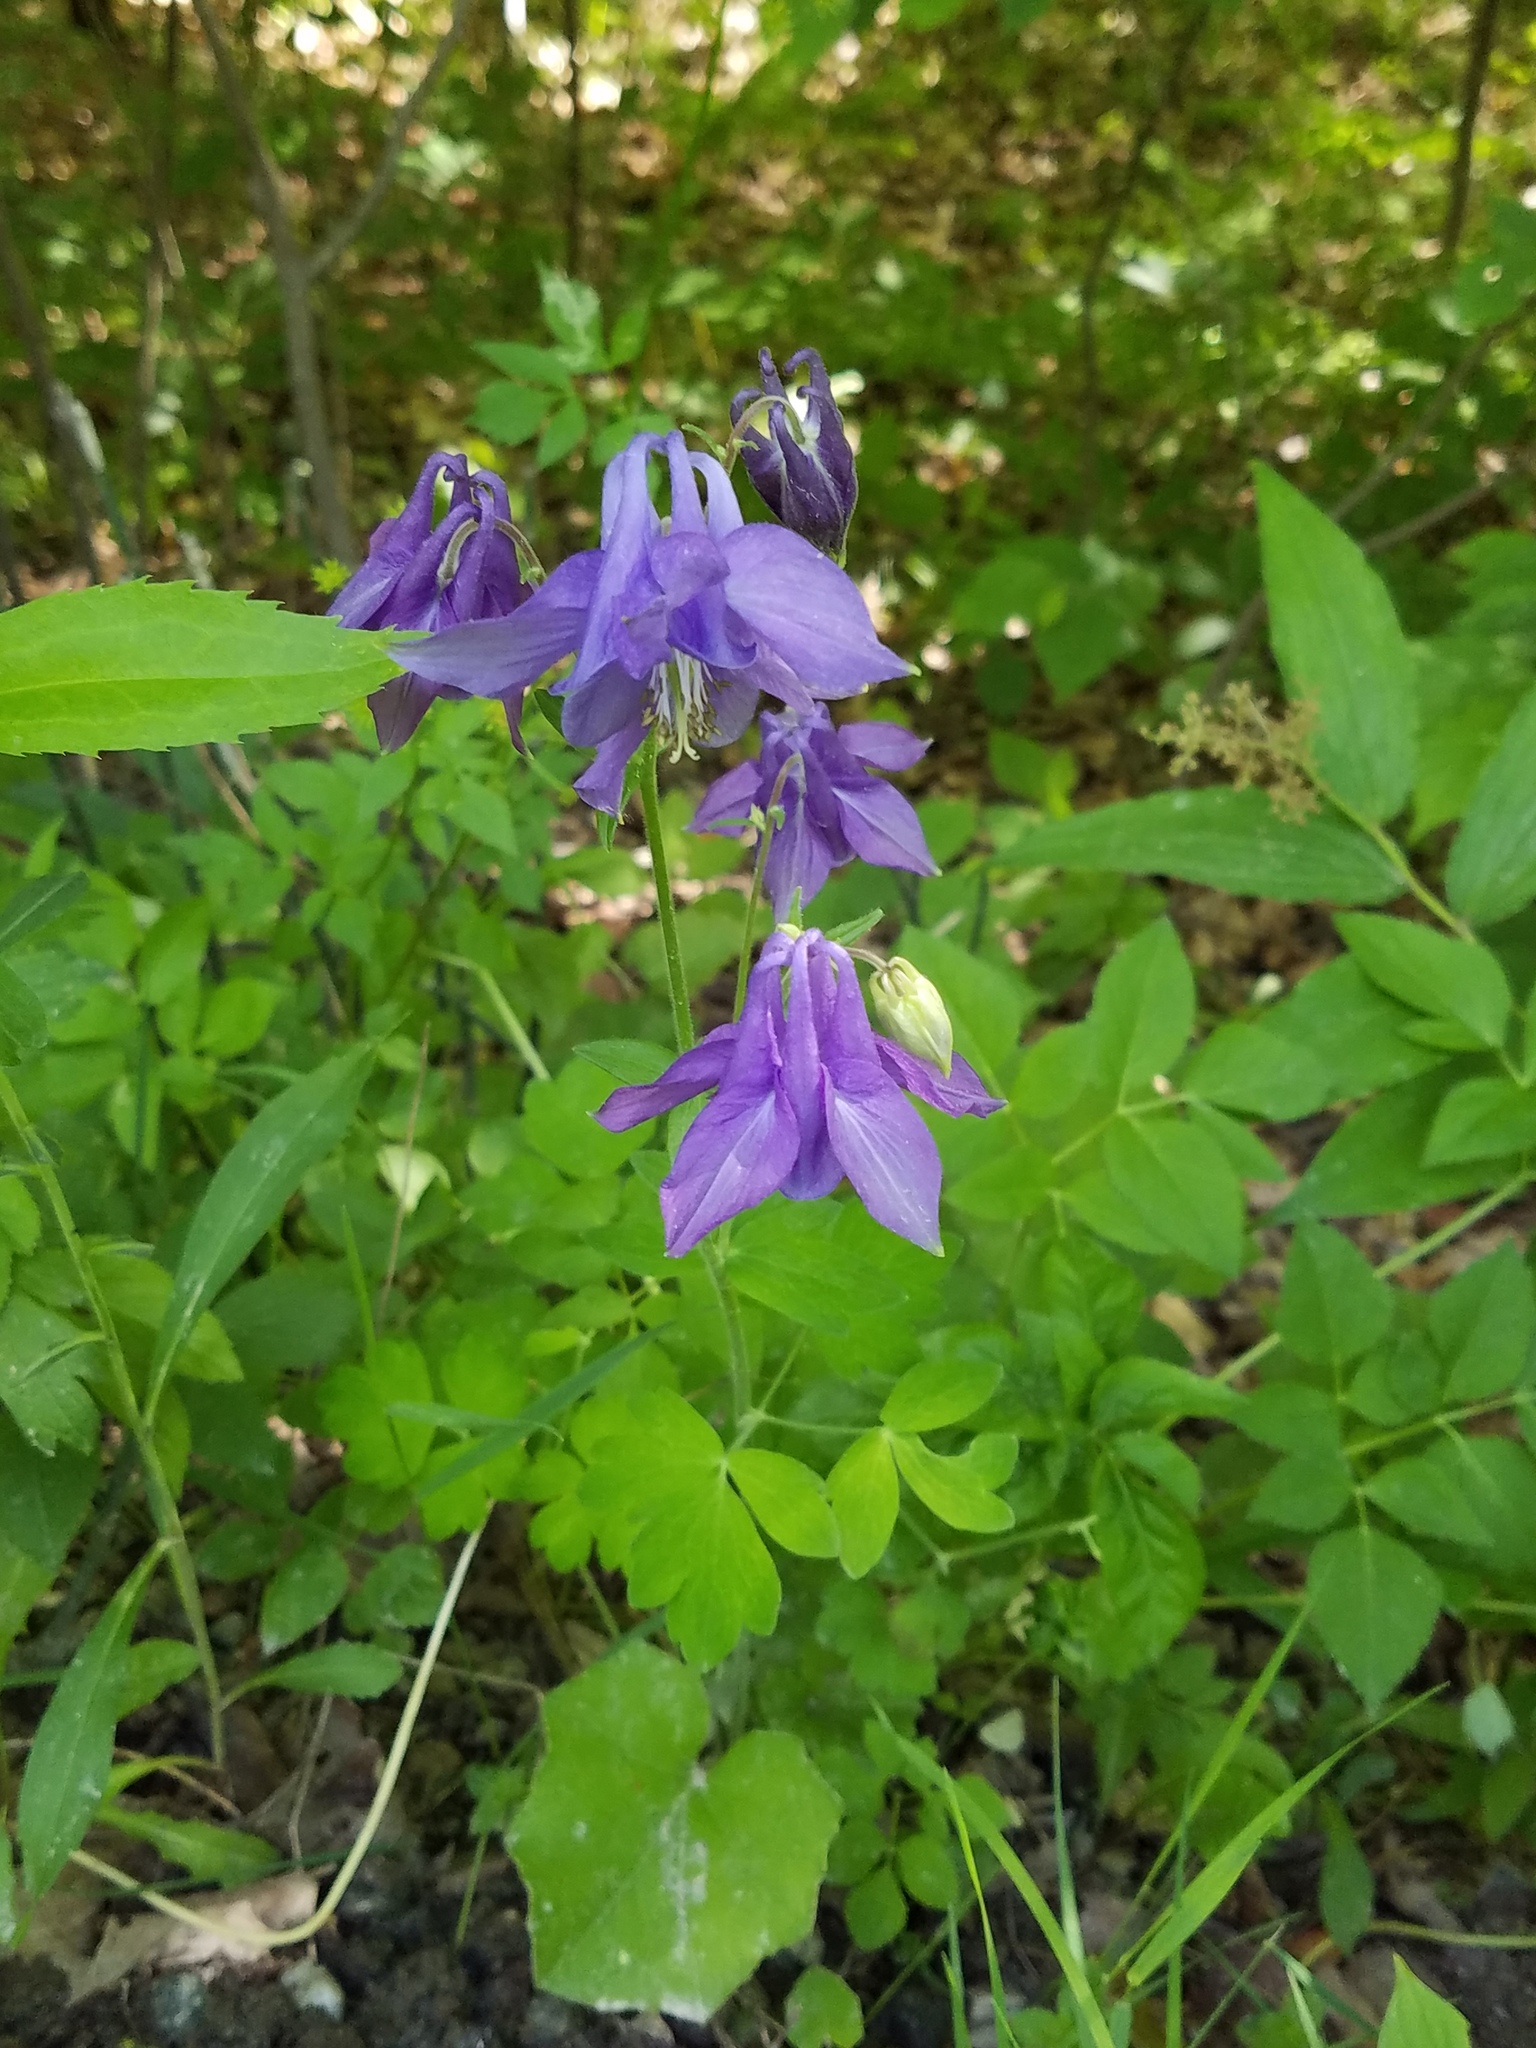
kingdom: Plantae
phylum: Tracheophyta
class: Magnoliopsida
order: Ranunculales
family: Ranunculaceae
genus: Aquilegia
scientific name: Aquilegia vulgaris
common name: Columbine
